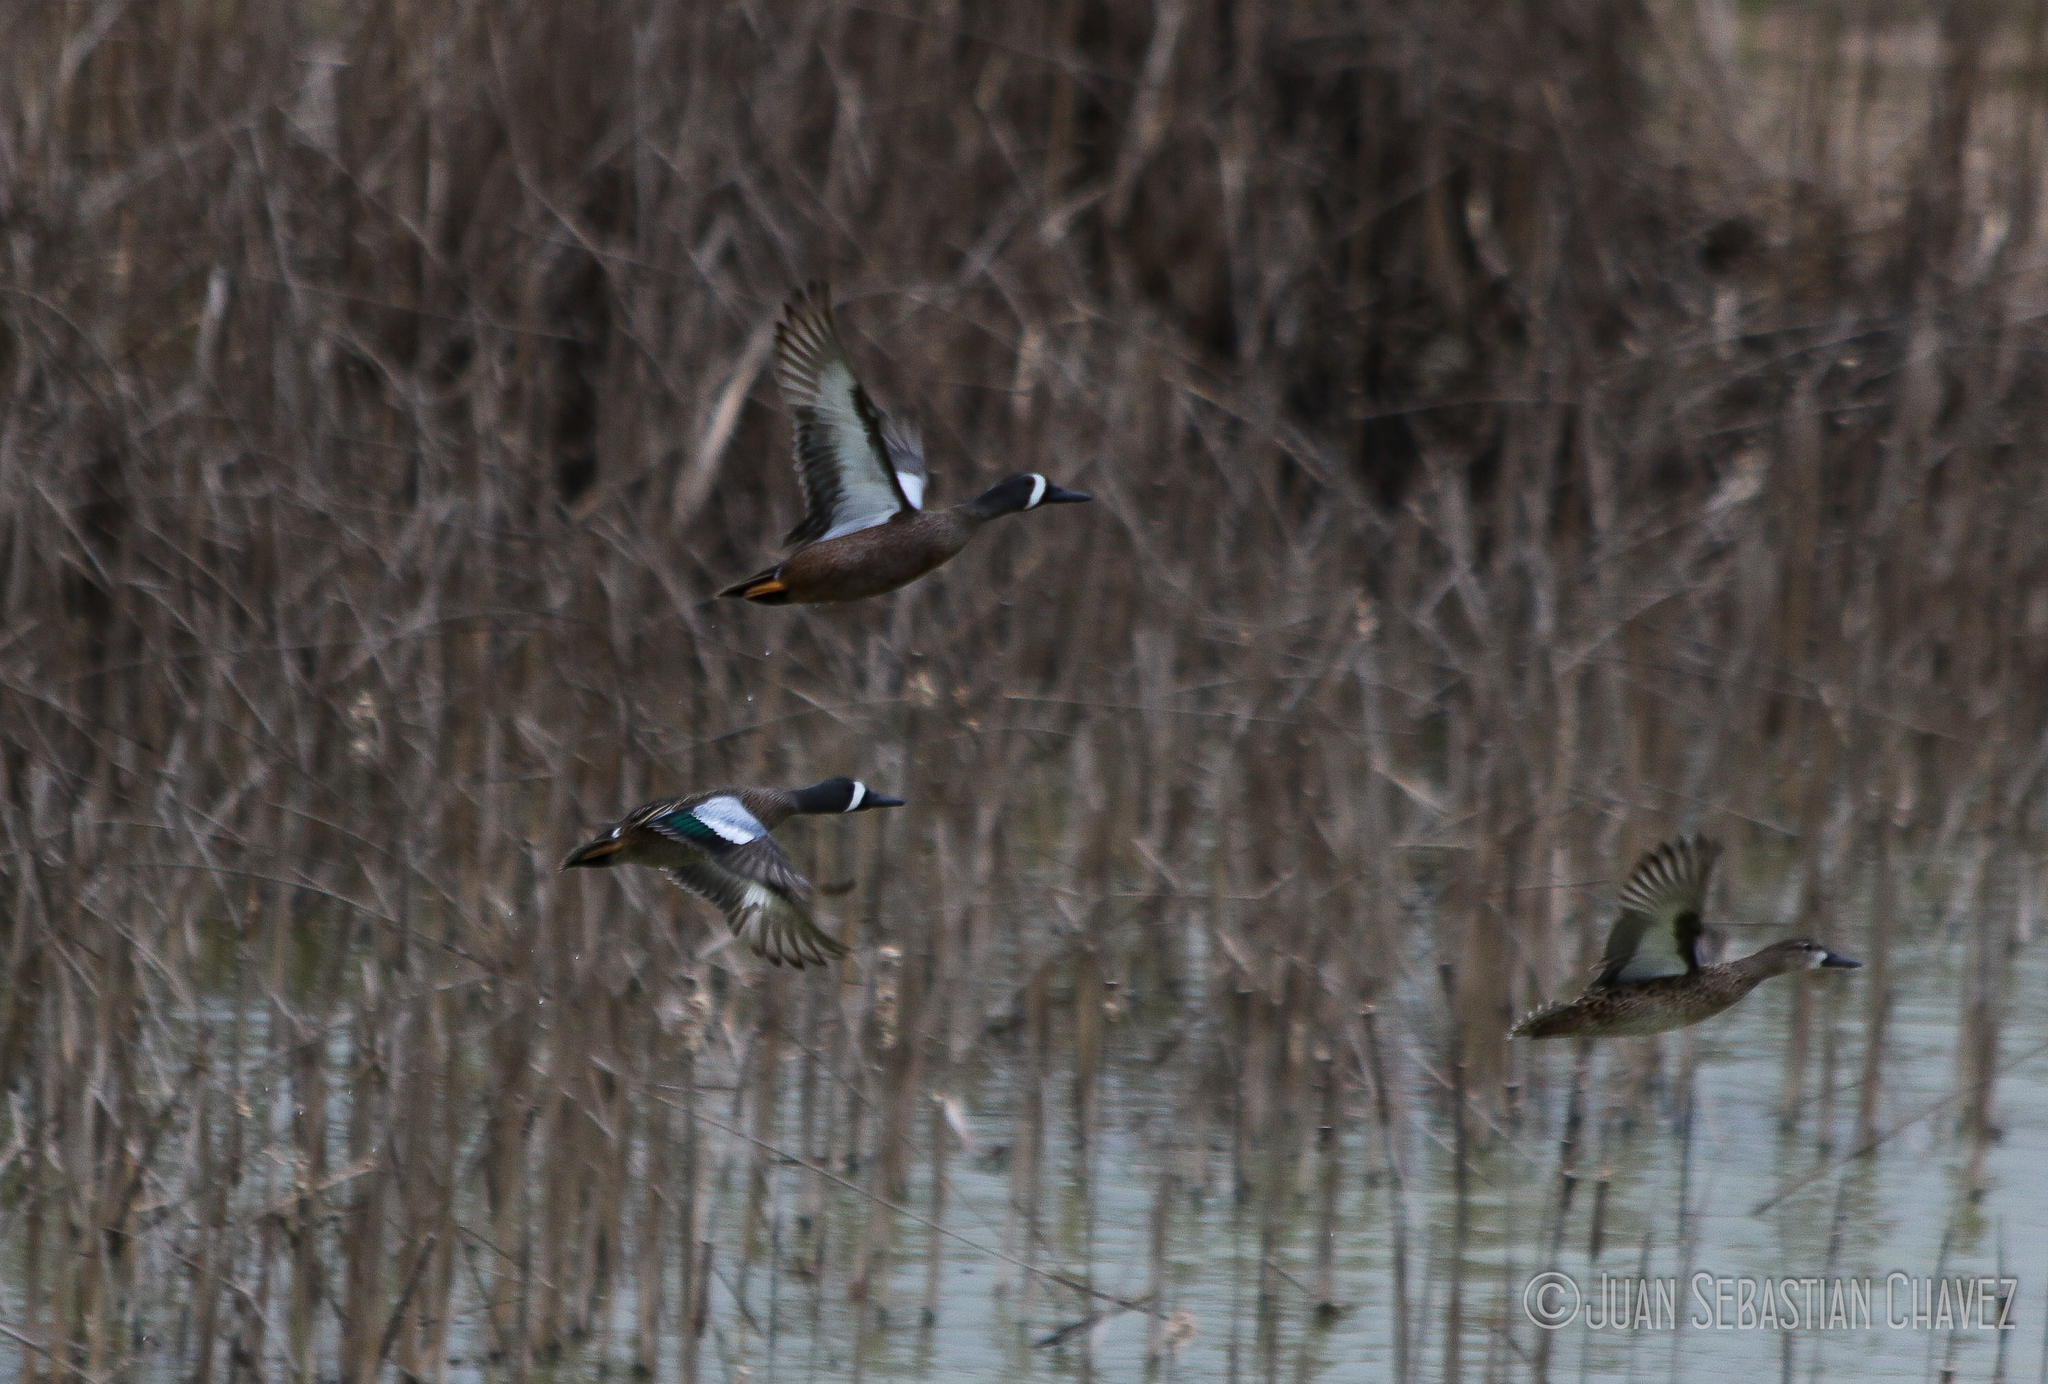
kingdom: Animalia
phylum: Chordata
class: Aves
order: Anseriformes
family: Anatidae
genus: Spatula
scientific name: Spatula discors
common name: Blue-winged teal
